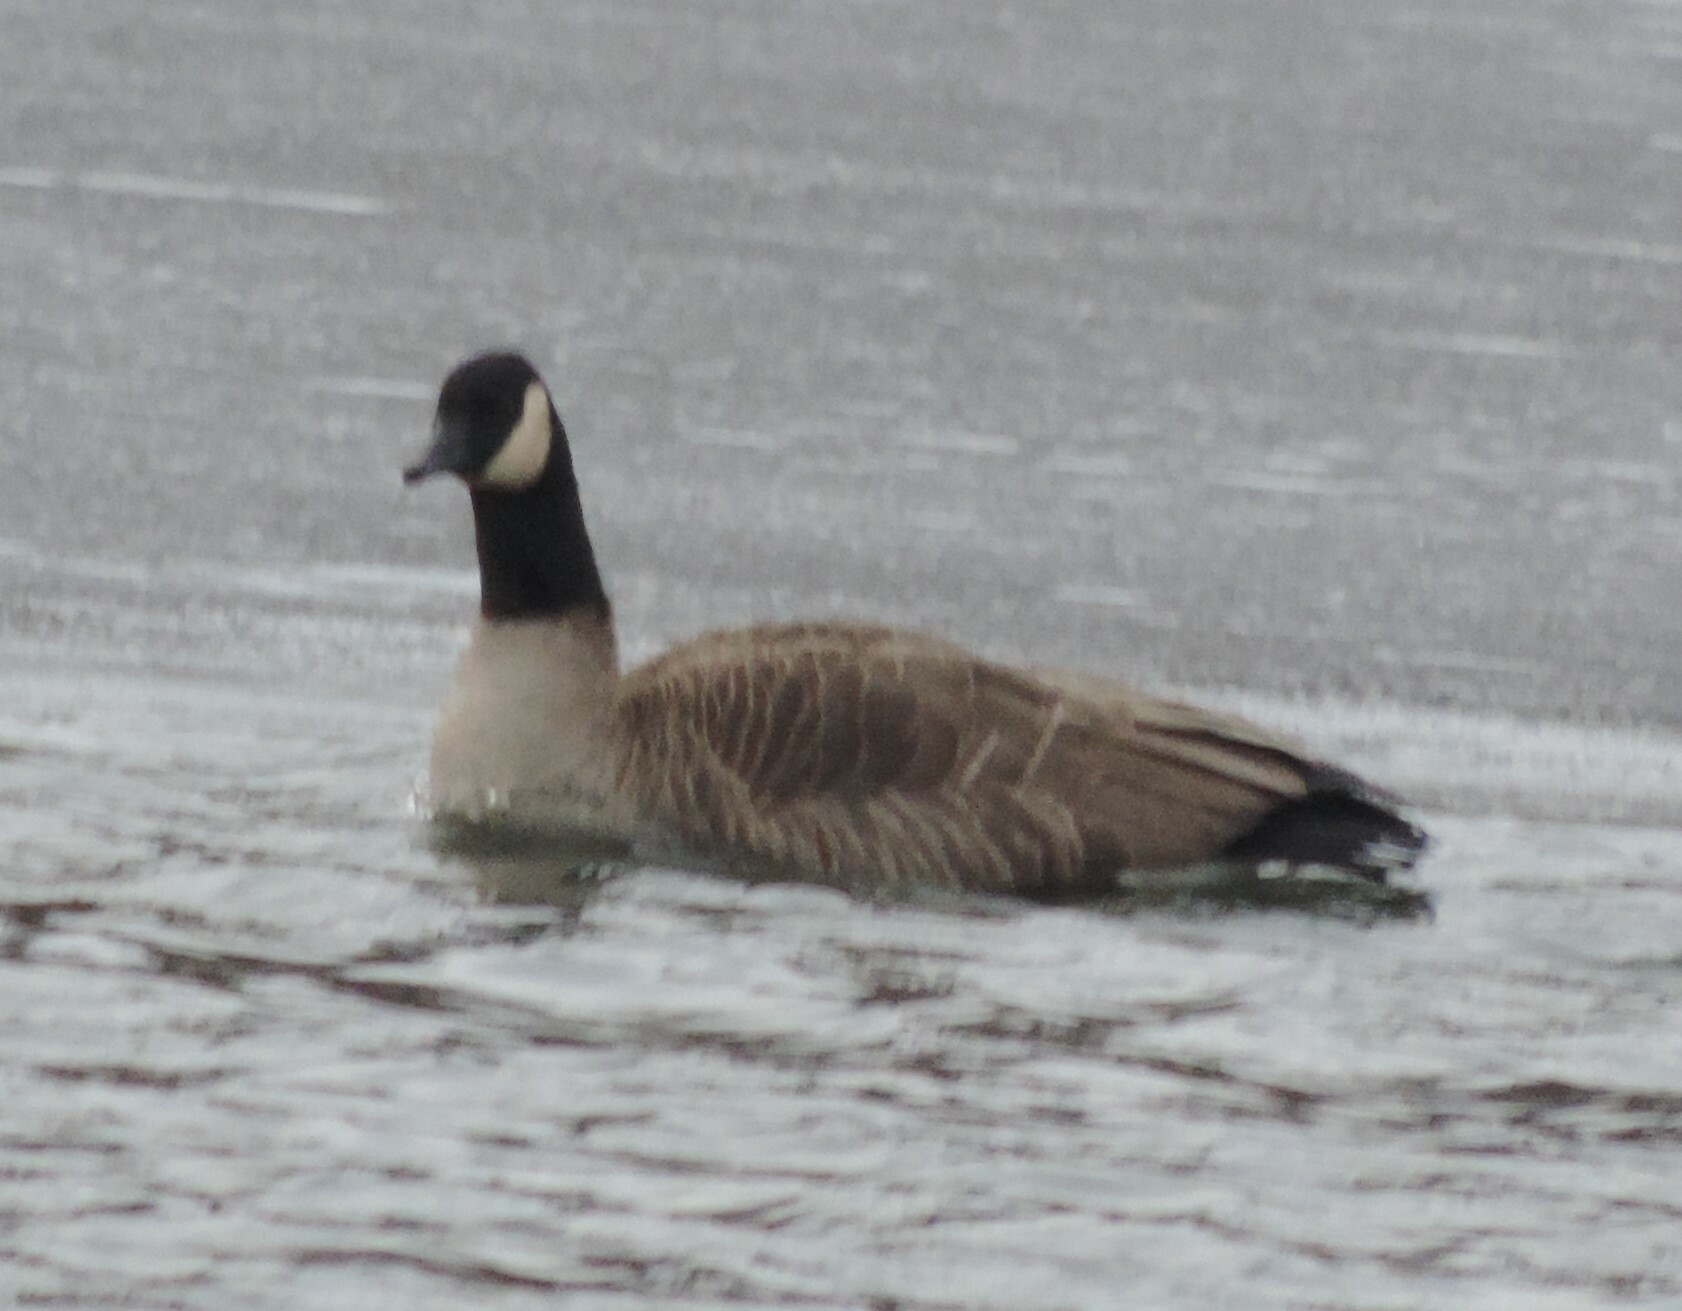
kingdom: Animalia
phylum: Chordata
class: Aves
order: Anseriformes
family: Anatidae
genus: Branta
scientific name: Branta canadensis
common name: Canada goose
